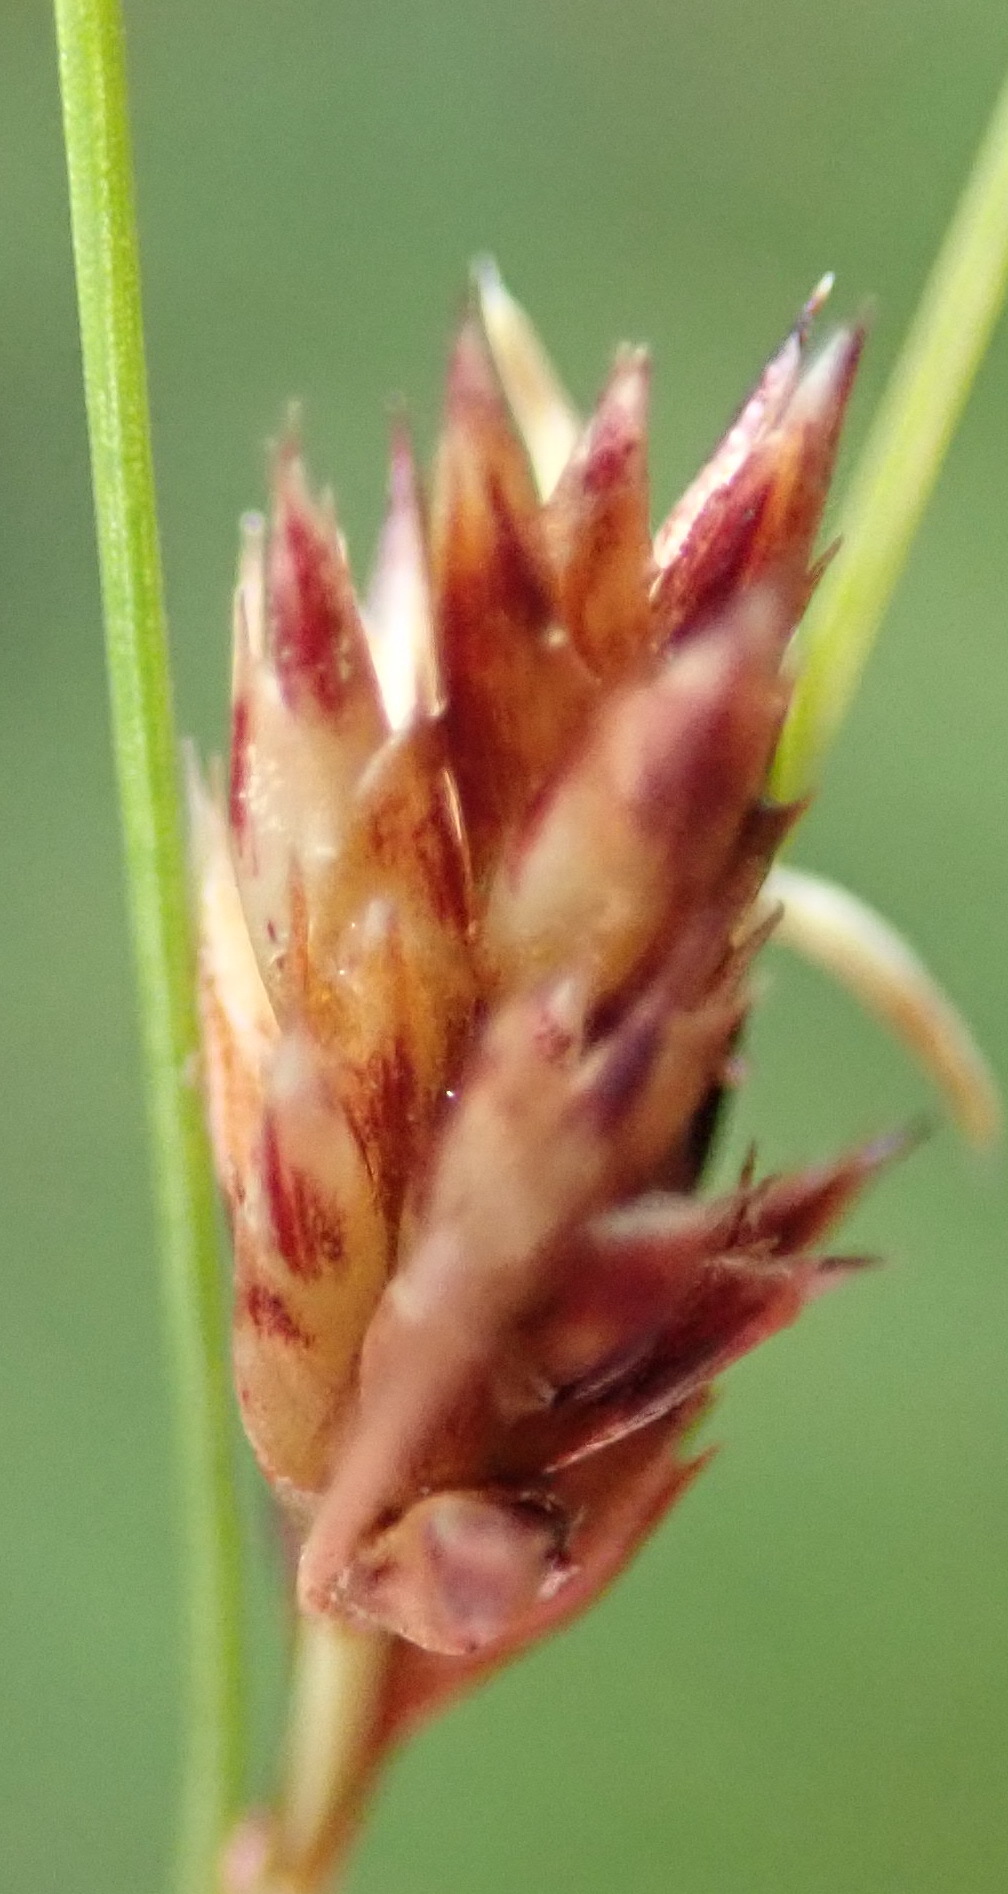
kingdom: Plantae
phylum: Tracheophyta
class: Liliopsida
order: Poales
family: Cyperaceae
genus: Ficinia
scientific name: Ficinia fascicularis
